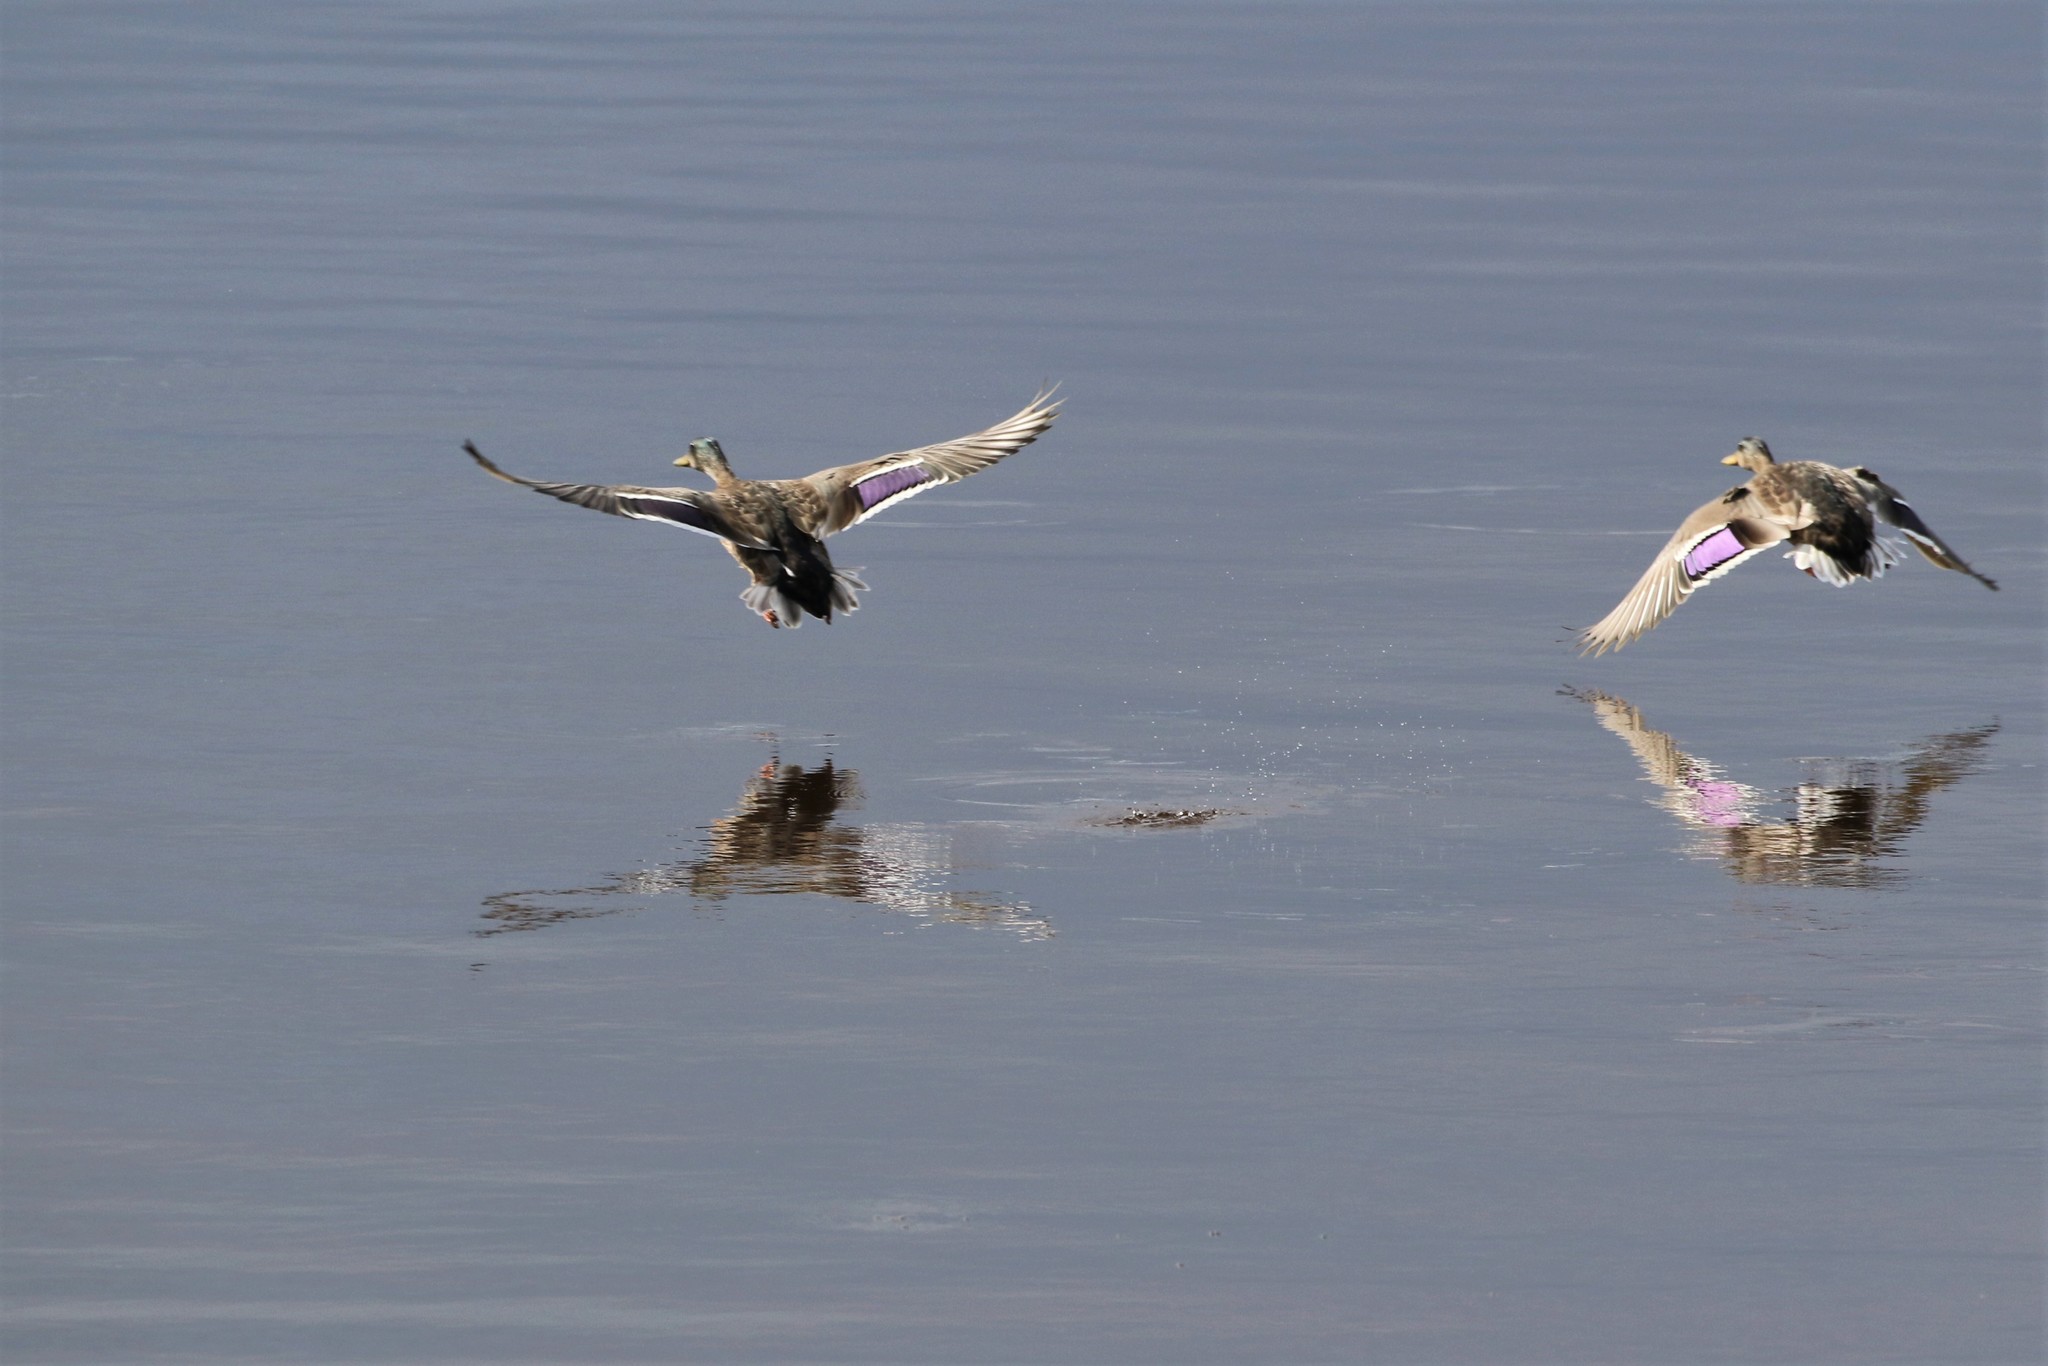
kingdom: Animalia
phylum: Chordata
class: Aves
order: Anseriformes
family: Anatidae
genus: Anas
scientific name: Anas platyrhynchos
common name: Mallard
